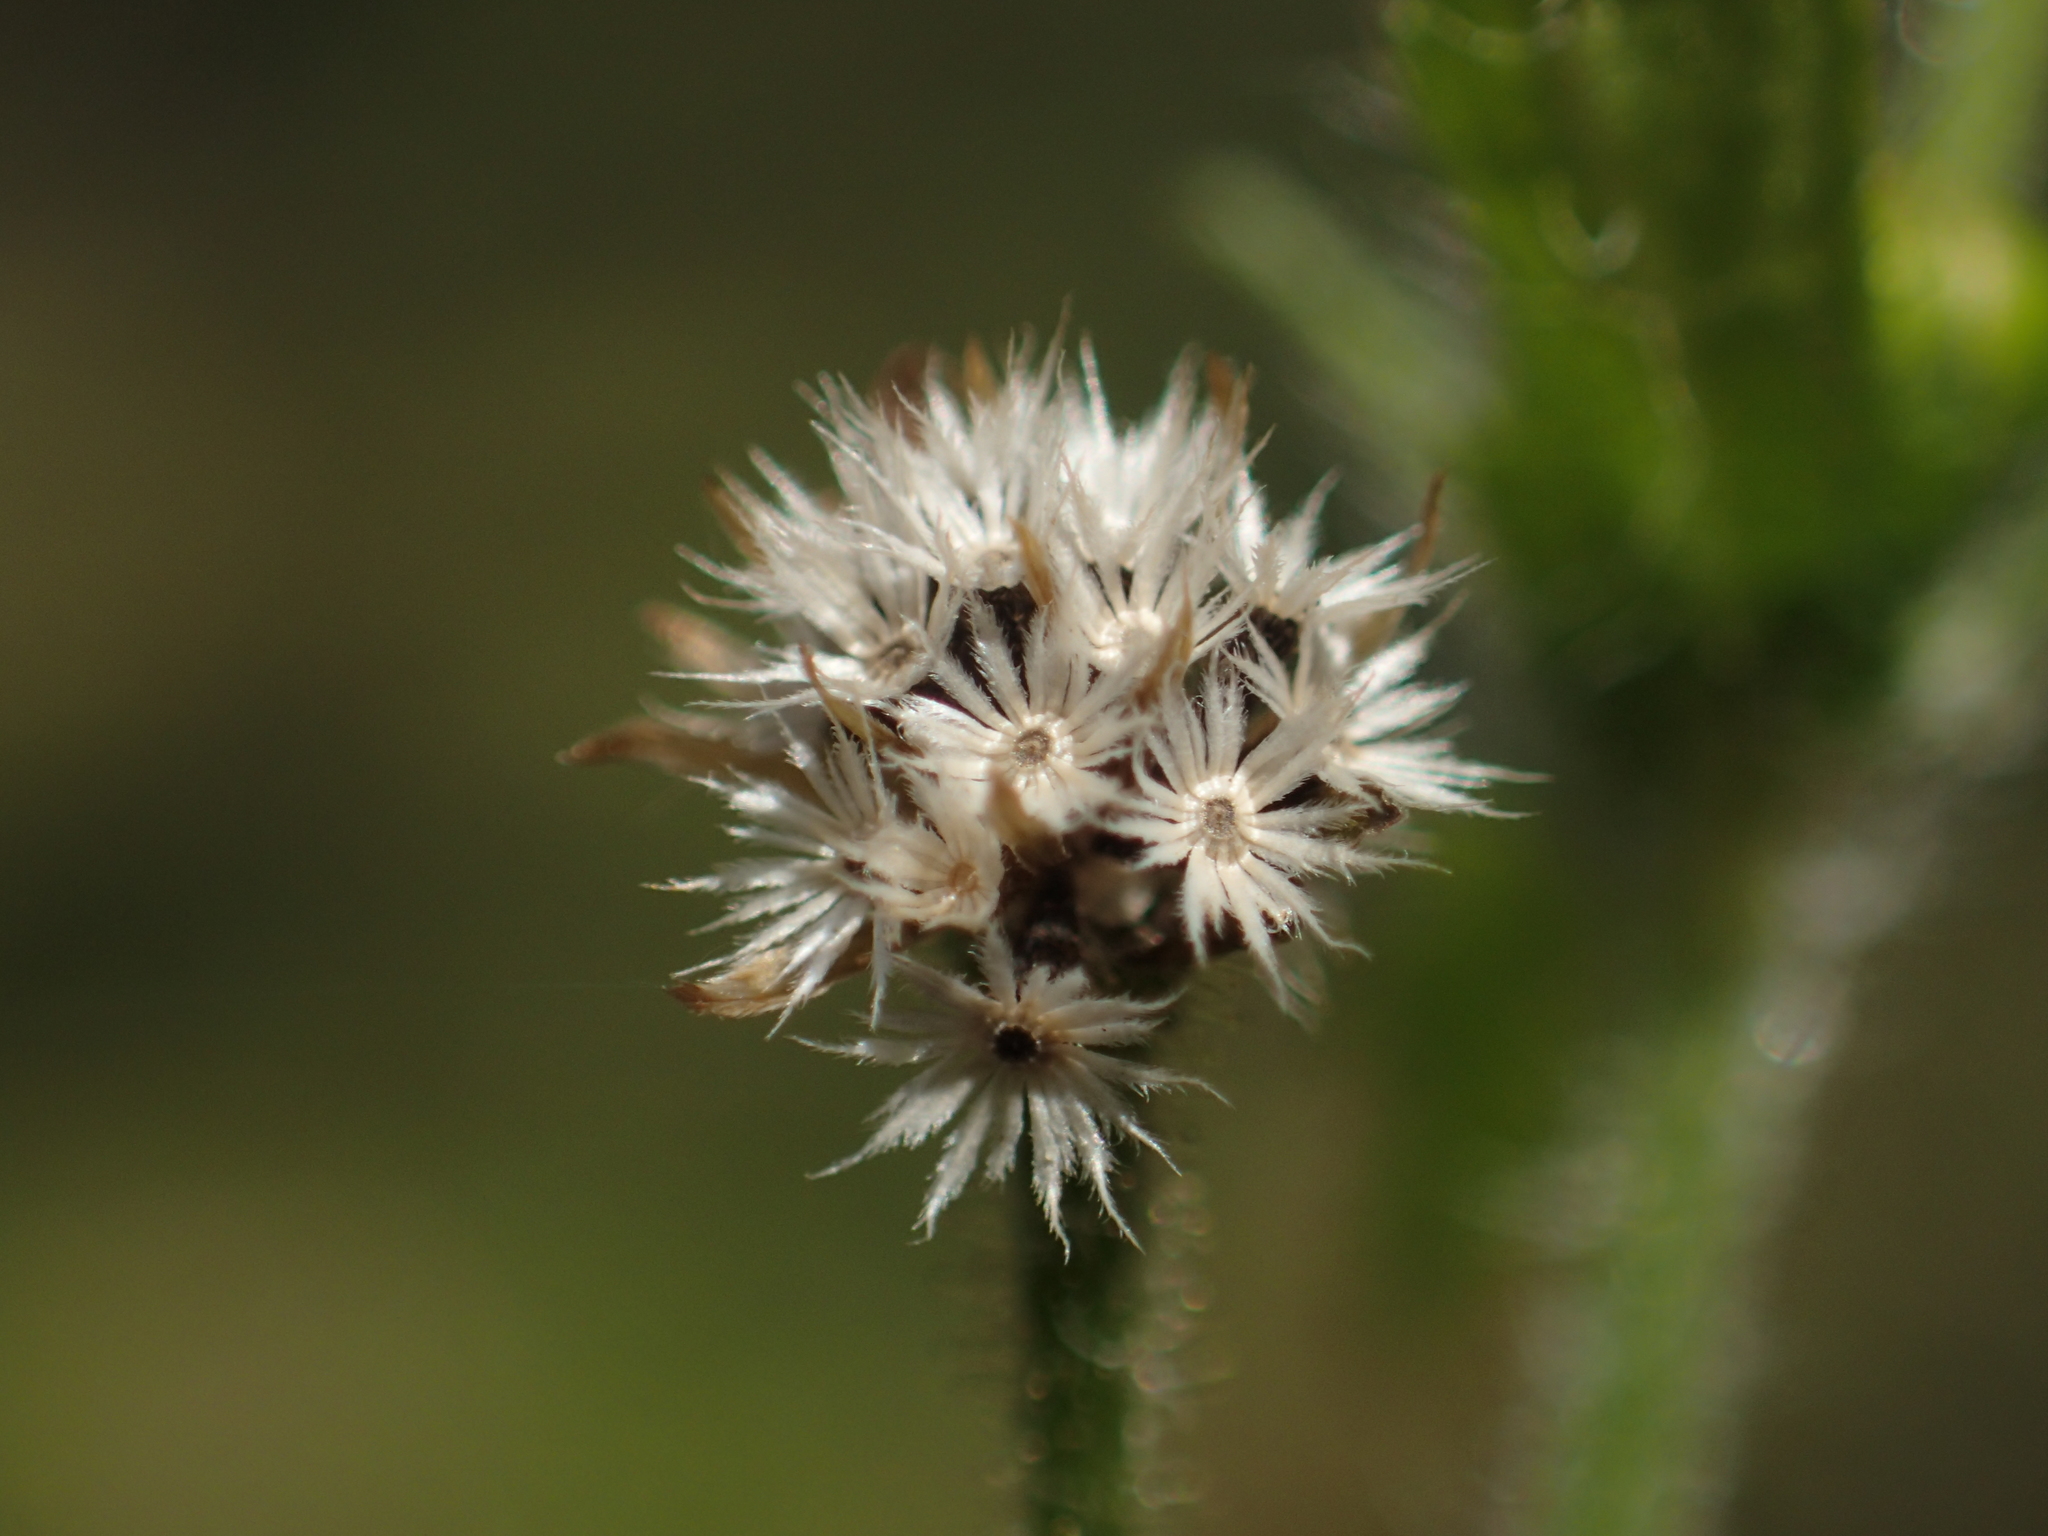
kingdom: Plantae
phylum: Tracheophyta
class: Magnoliopsida
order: Asterales
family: Asteraceae
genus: Galinsoga
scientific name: Galinsoga quadriradiata
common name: Shaggy soldier
